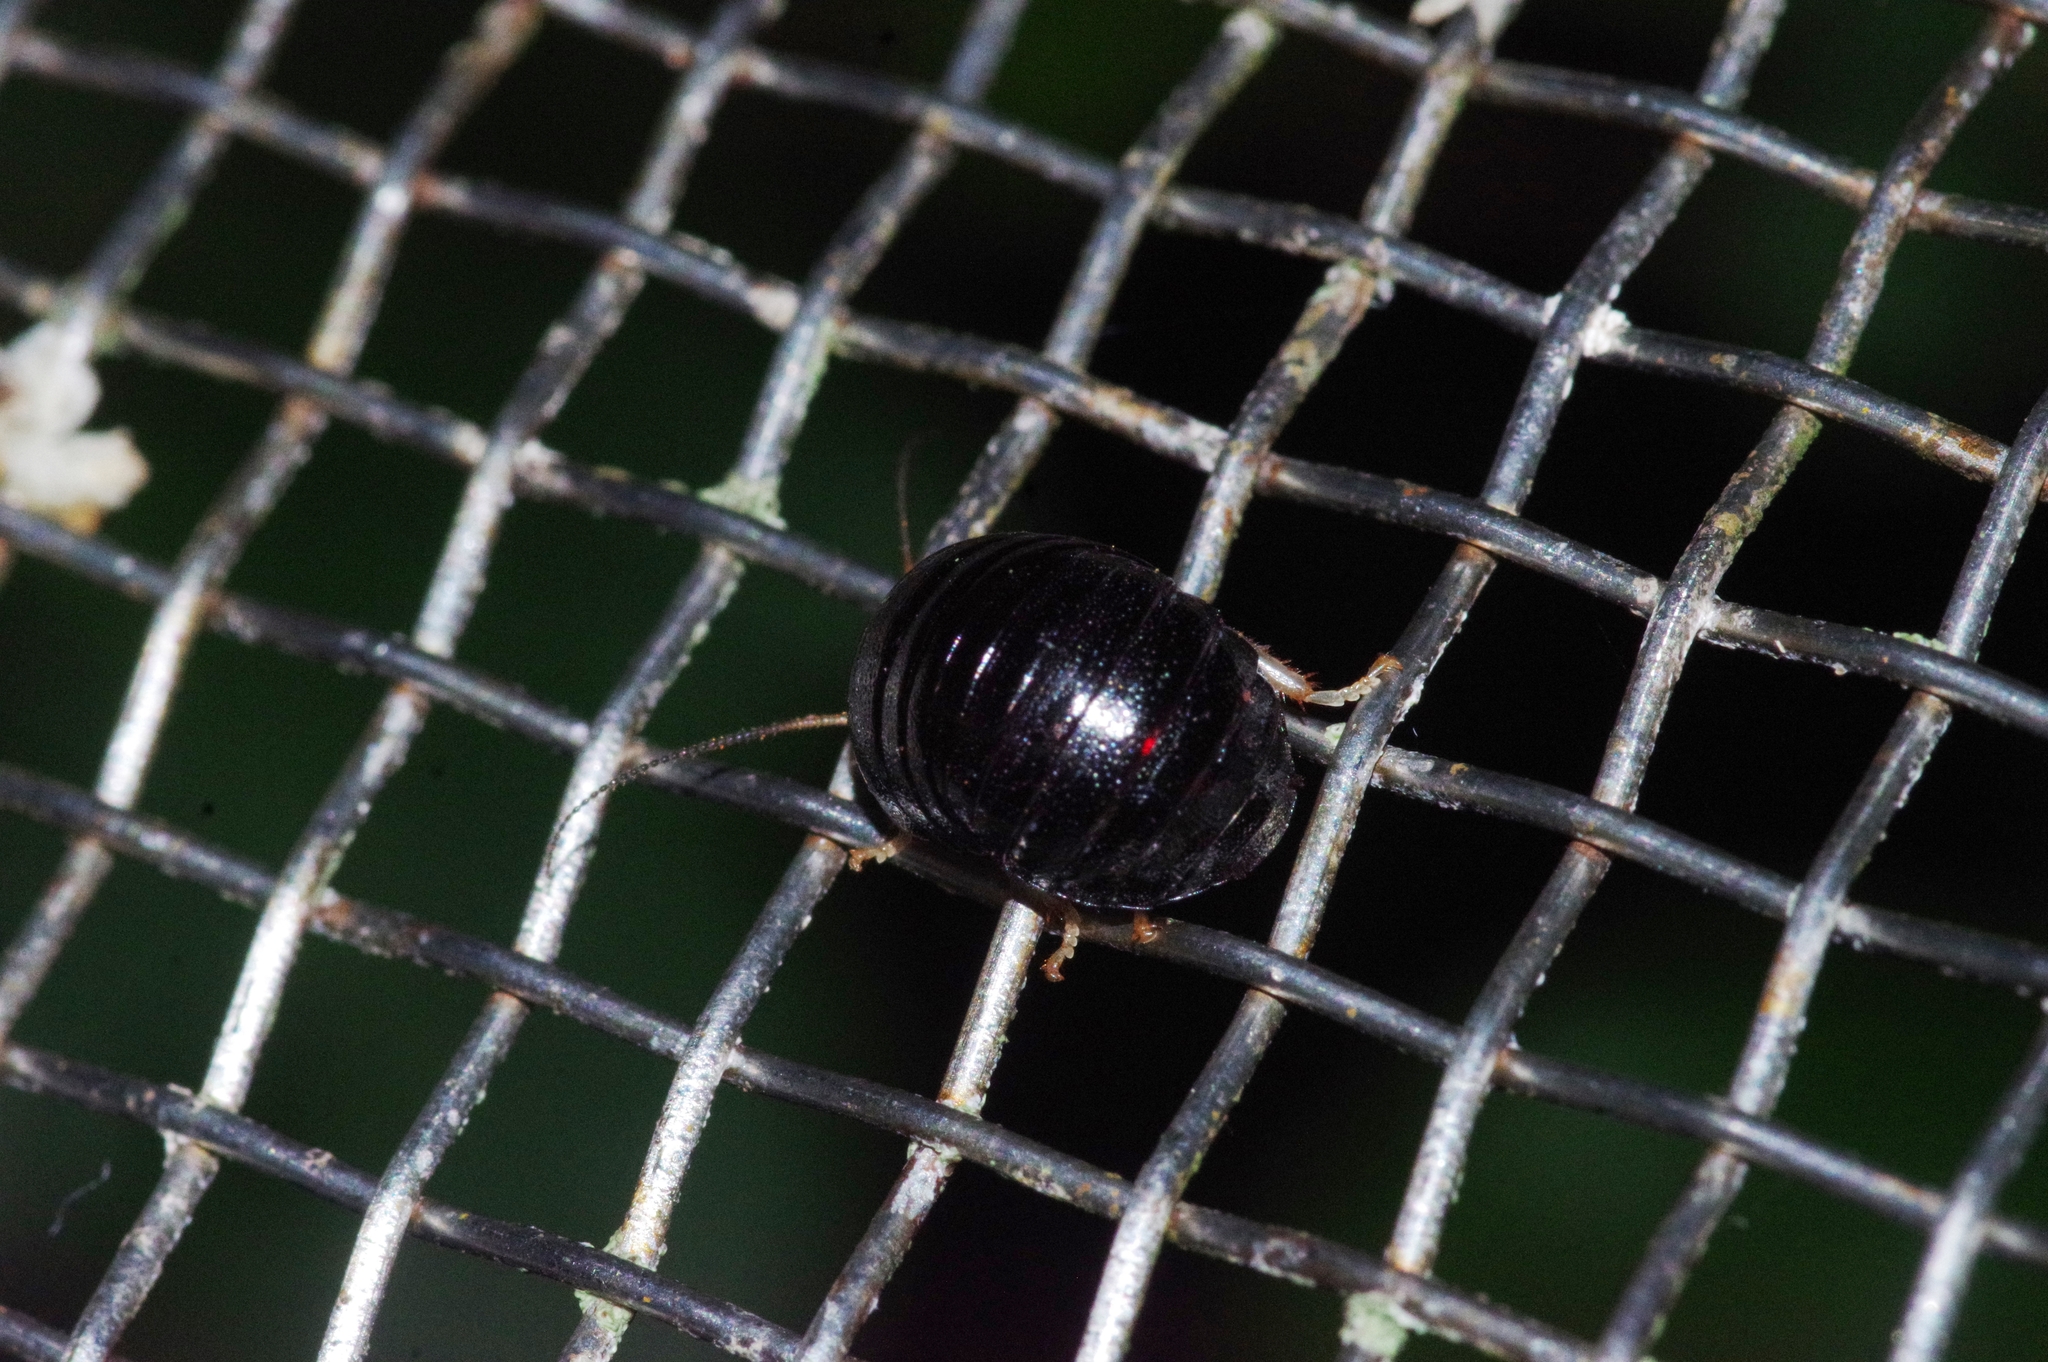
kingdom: Animalia
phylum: Arthropoda
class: Insecta
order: Blattodea
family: Blaberidae
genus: Perisphaerus
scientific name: Perisphaerus pygmaea
